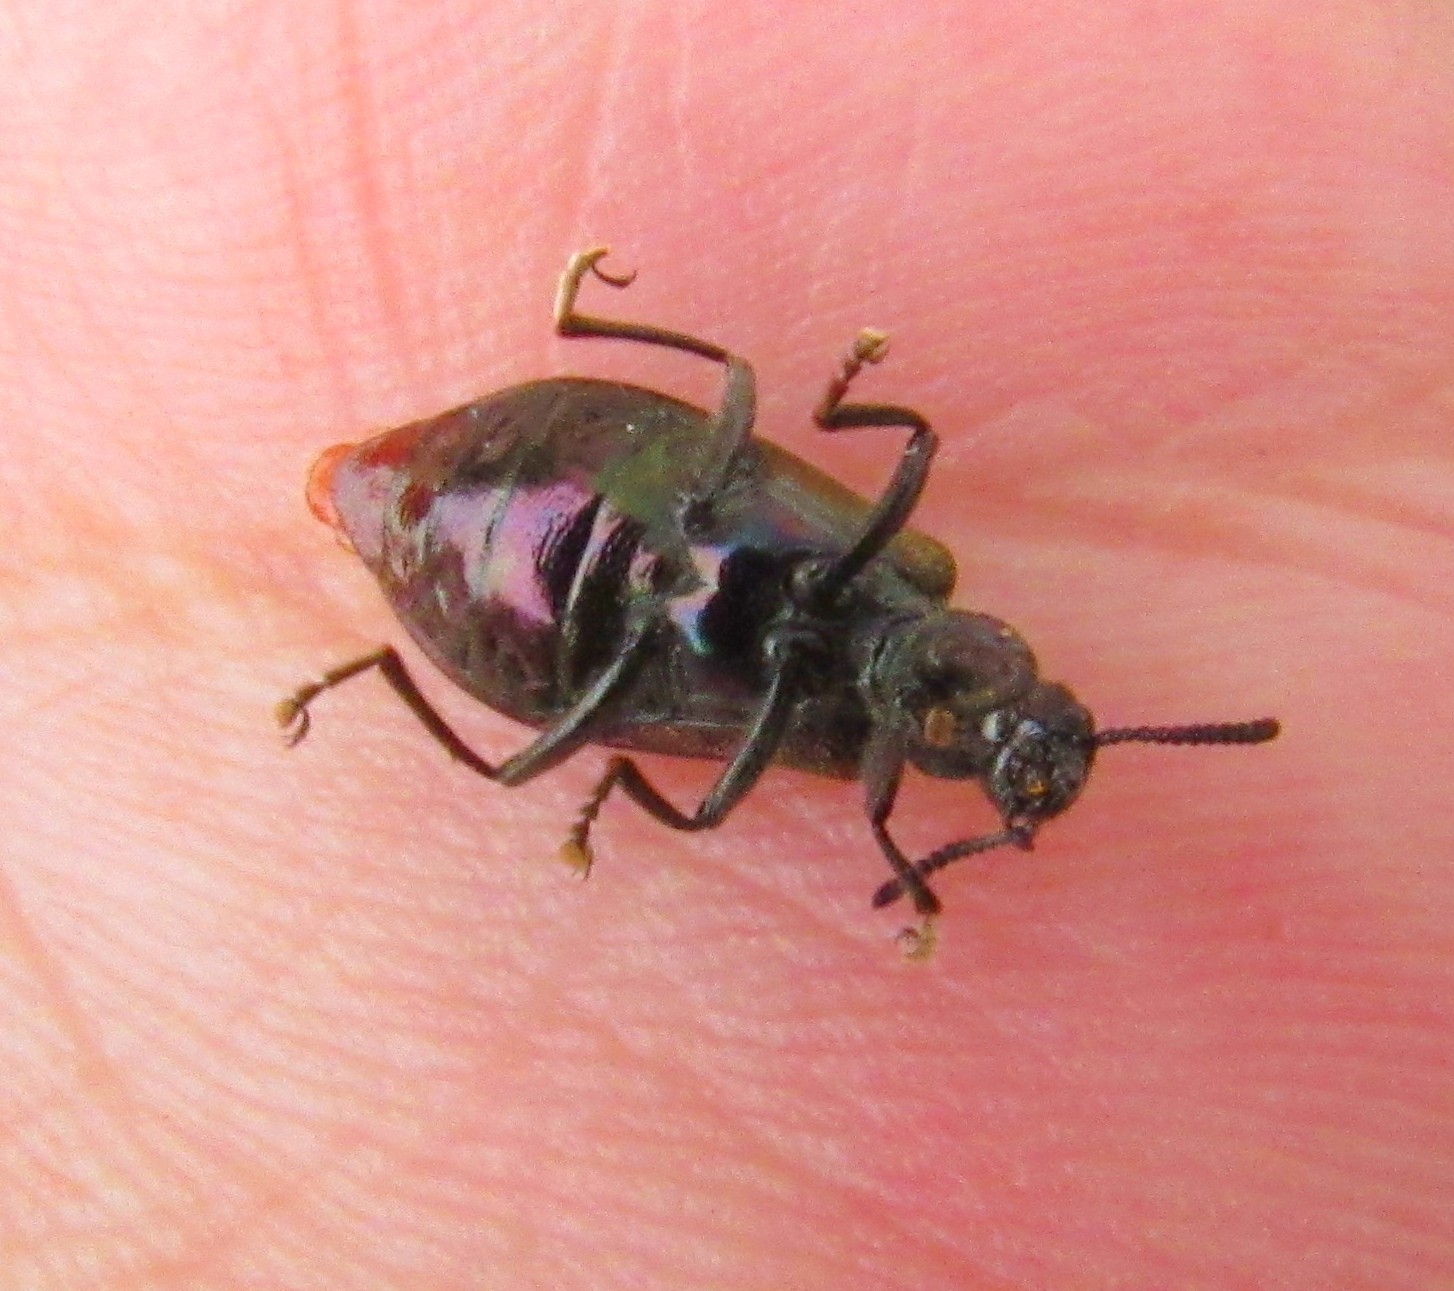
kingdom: Animalia
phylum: Arthropoda
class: Insecta
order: Coleoptera
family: Tenebrionidae
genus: Lagria
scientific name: Lagria villosa
